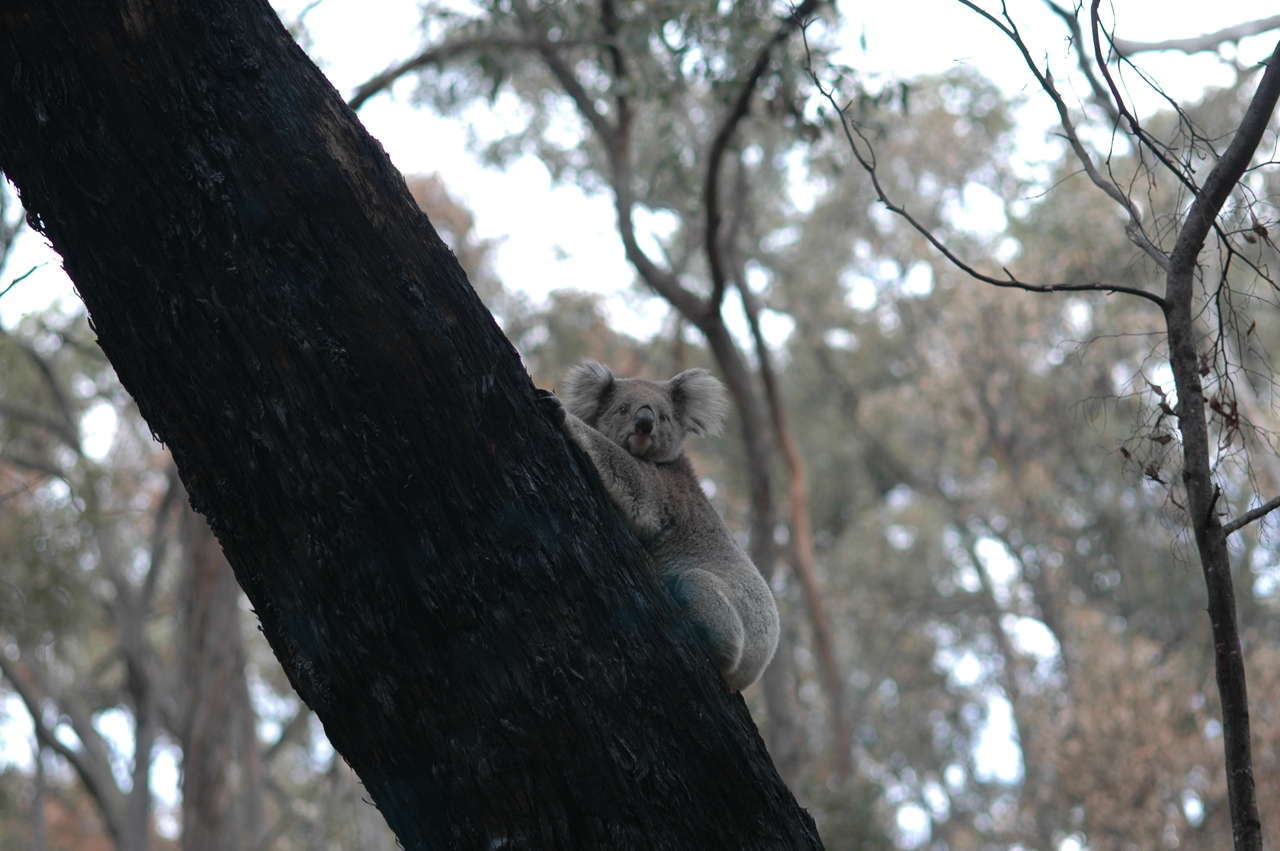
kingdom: Animalia
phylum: Chordata
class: Mammalia
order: Diprotodontia
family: Phascolarctidae
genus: Phascolarctos
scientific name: Phascolarctos cinereus
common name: Koala
